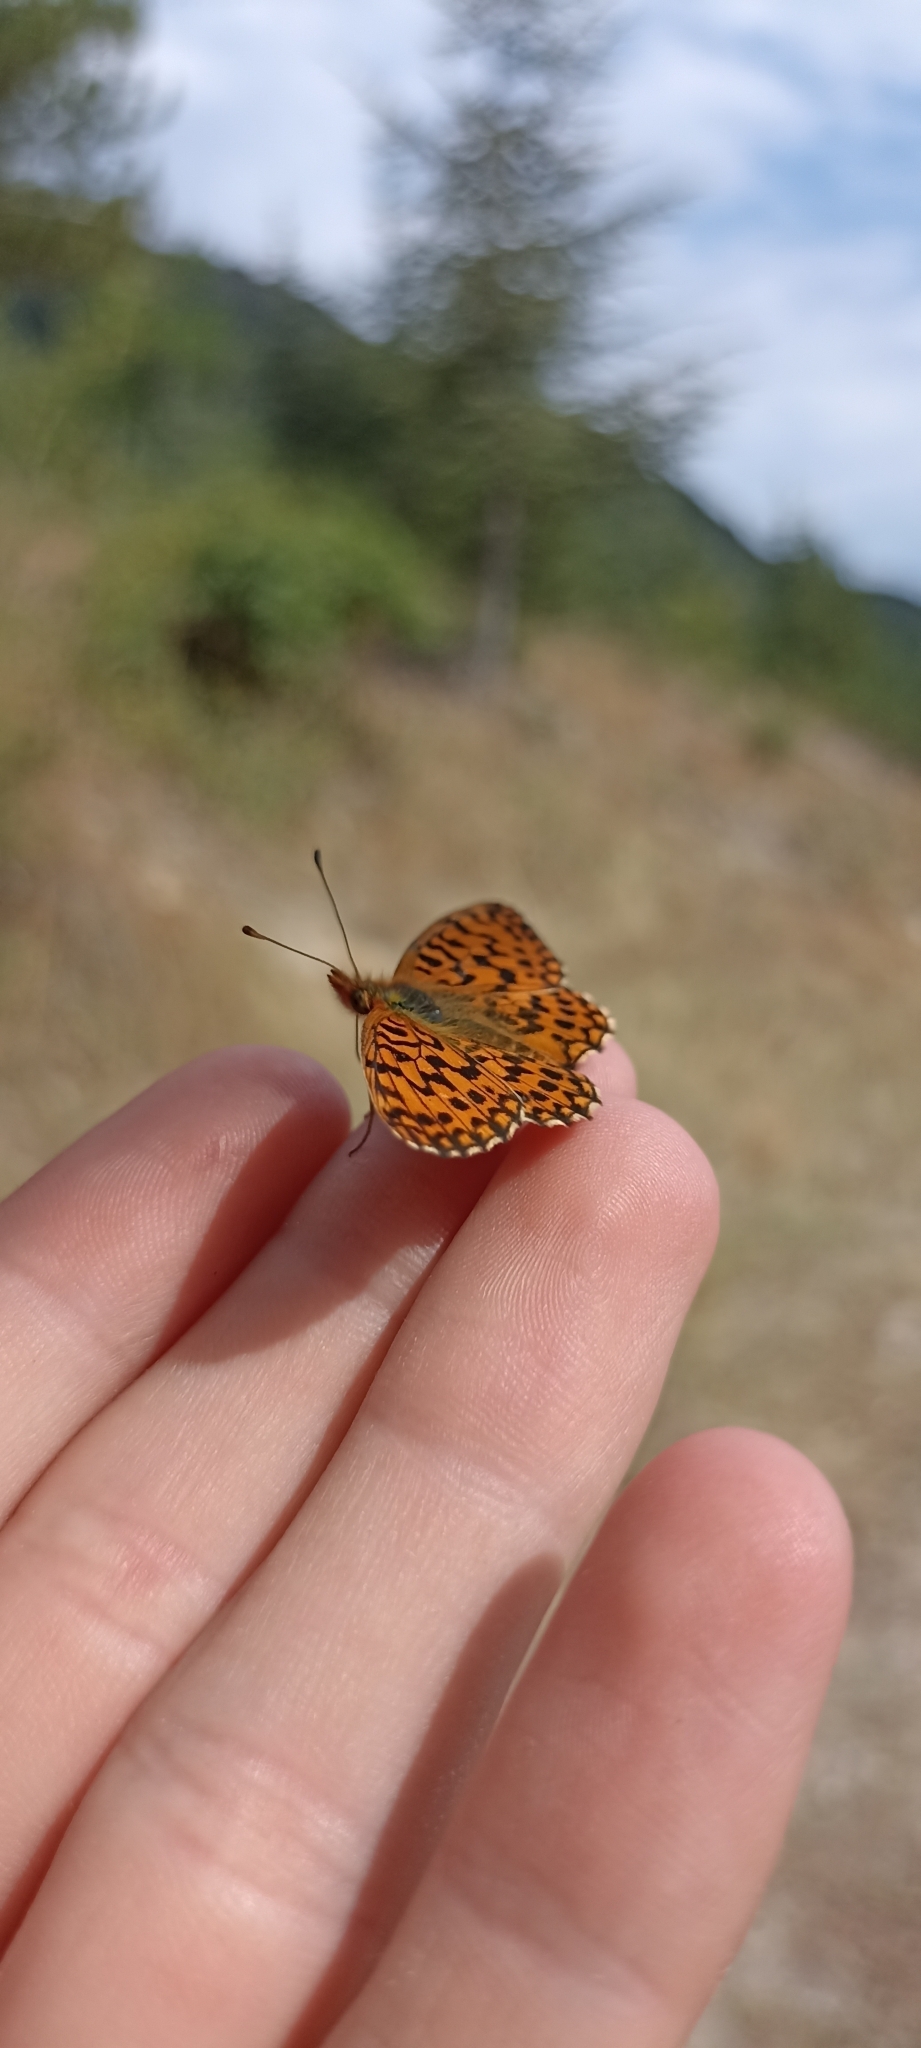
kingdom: Animalia
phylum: Arthropoda
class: Insecta
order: Lepidoptera
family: Nymphalidae
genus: Boloria
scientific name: Boloria dia
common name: Weaver's fritillary
